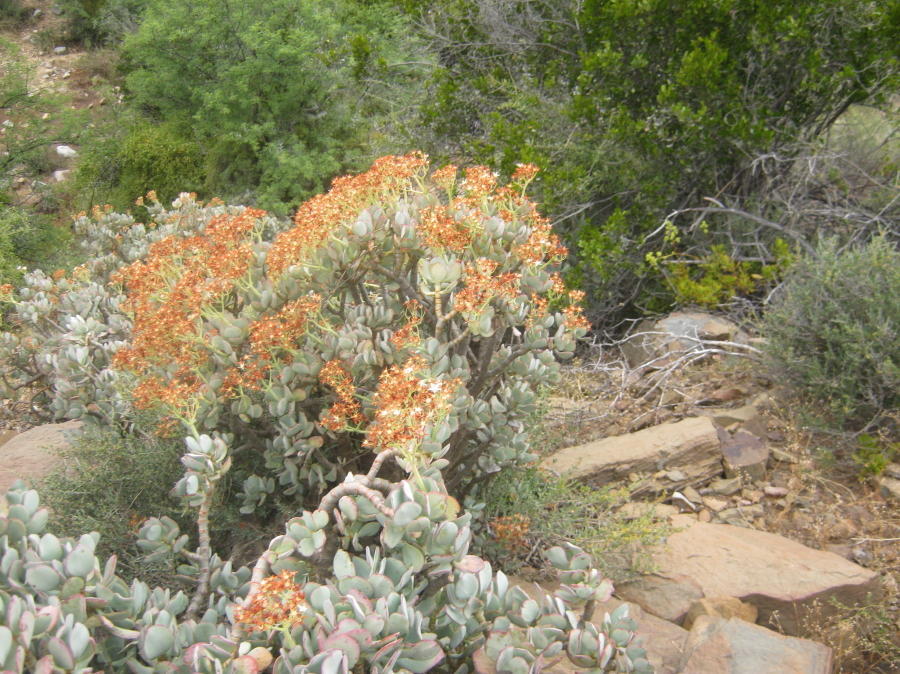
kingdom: Plantae
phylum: Tracheophyta
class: Magnoliopsida
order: Saxifragales
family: Crassulaceae
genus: Crassula
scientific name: Crassula arborescens
